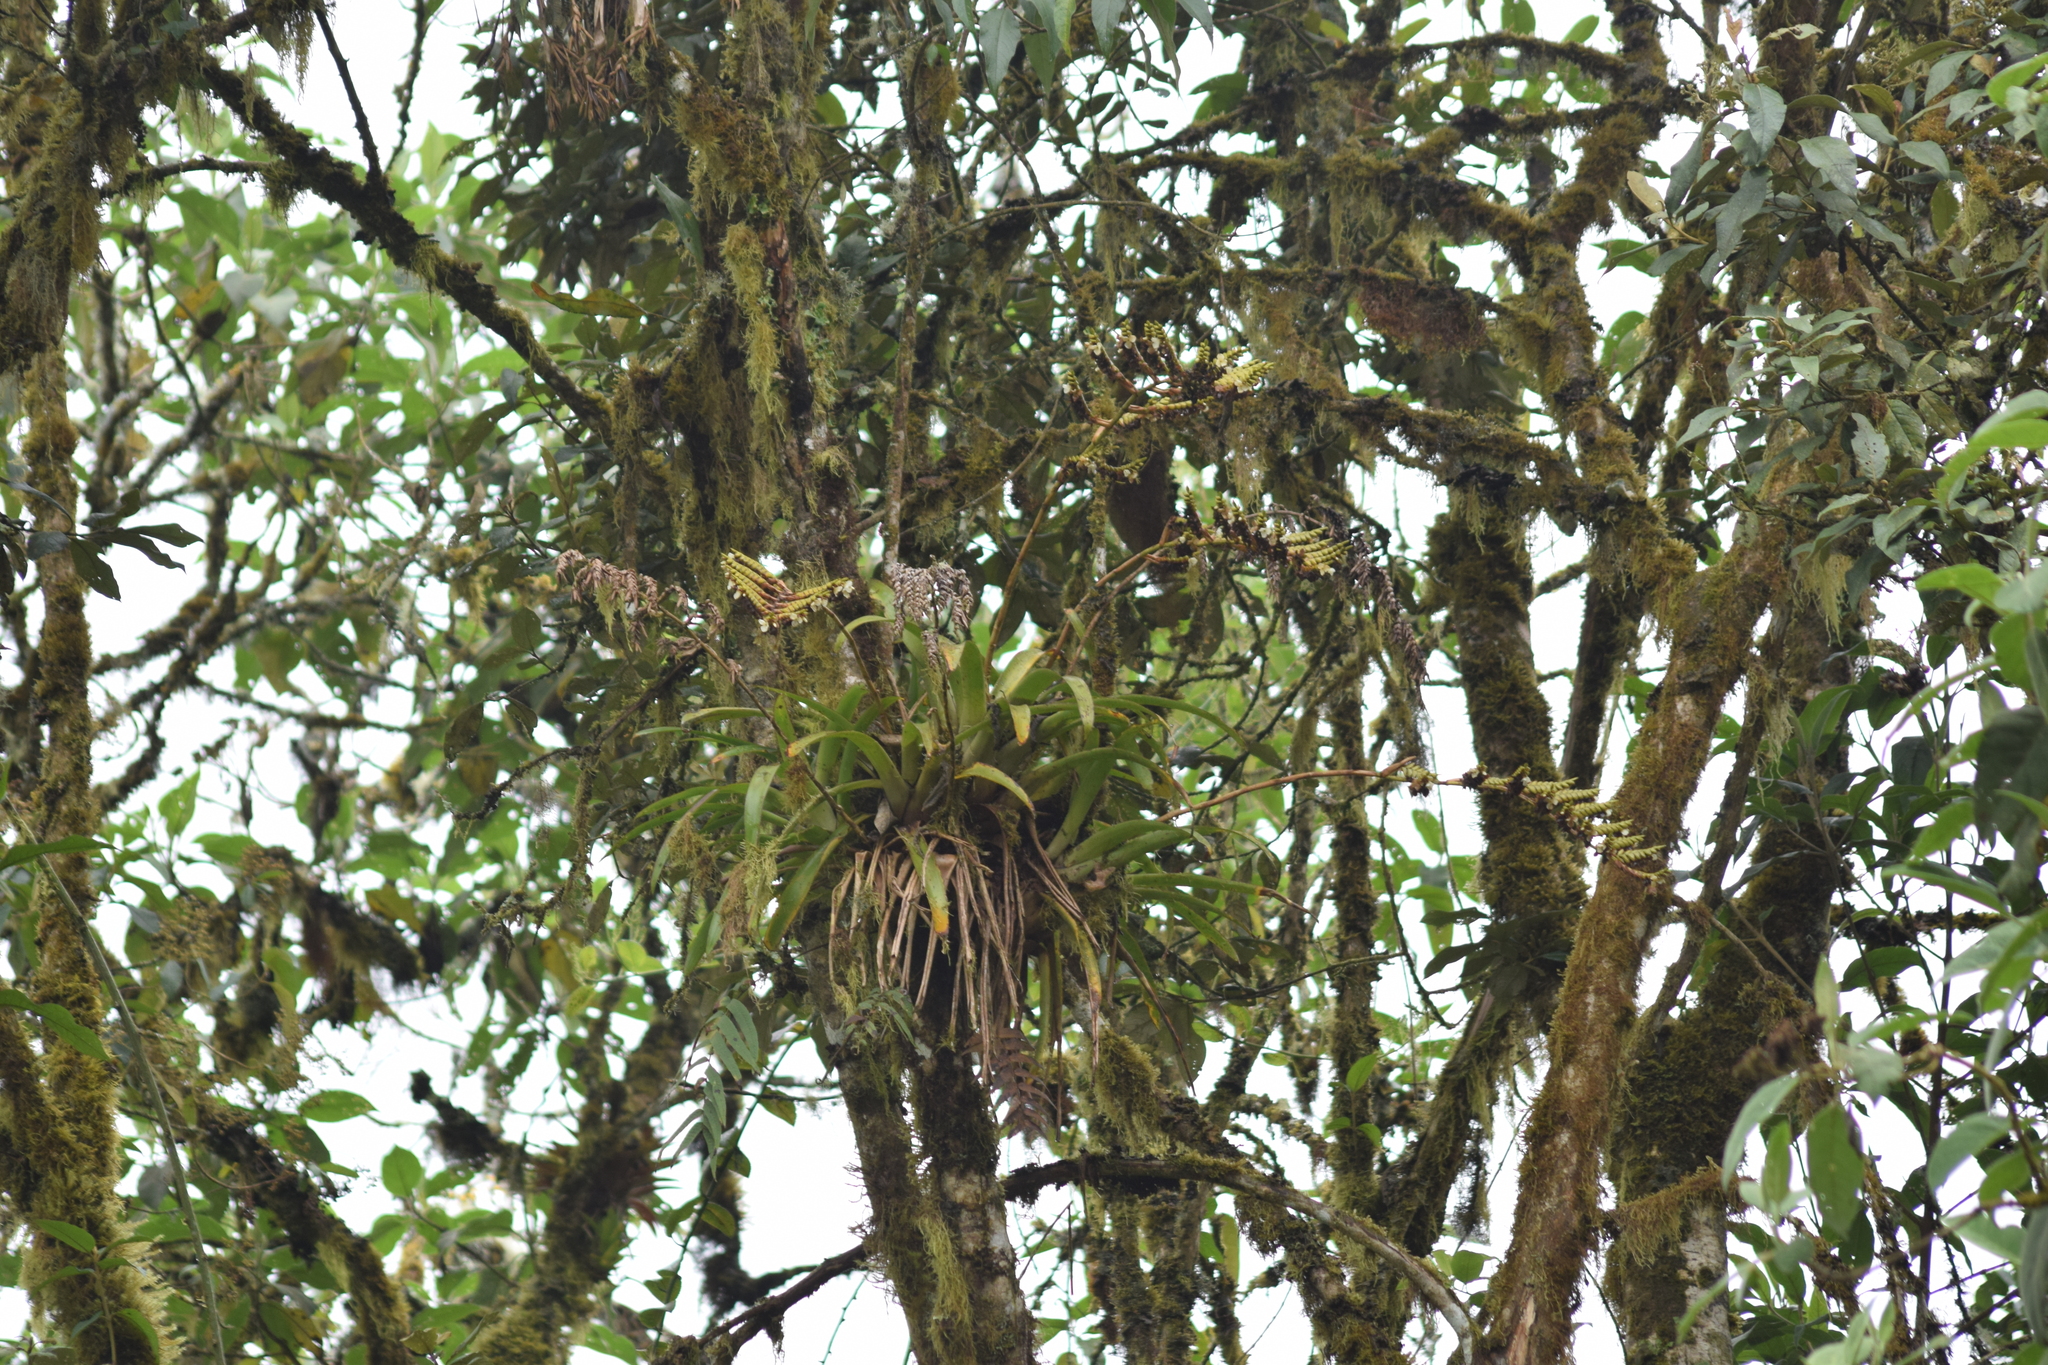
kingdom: Plantae
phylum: Tracheophyta
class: Liliopsida
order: Poales
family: Bromeliaceae
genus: Racinaea
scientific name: Racinaea riocreuxii
